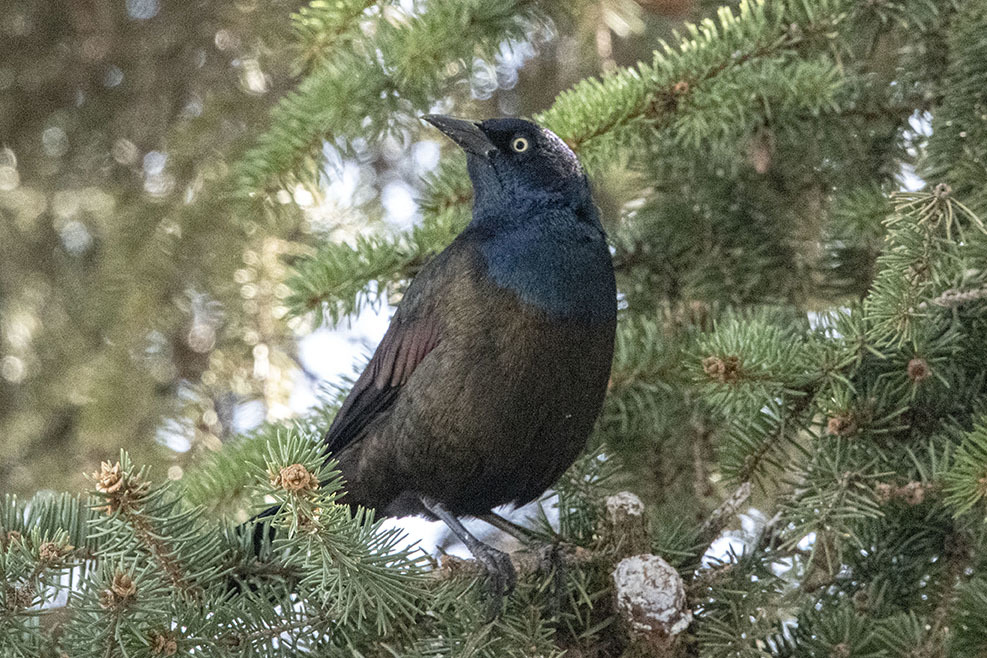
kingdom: Animalia
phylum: Chordata
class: Aves
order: Passeriformes
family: Icteridae
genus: Quiscalus
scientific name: Quiscalus quiscula
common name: Common grackle
